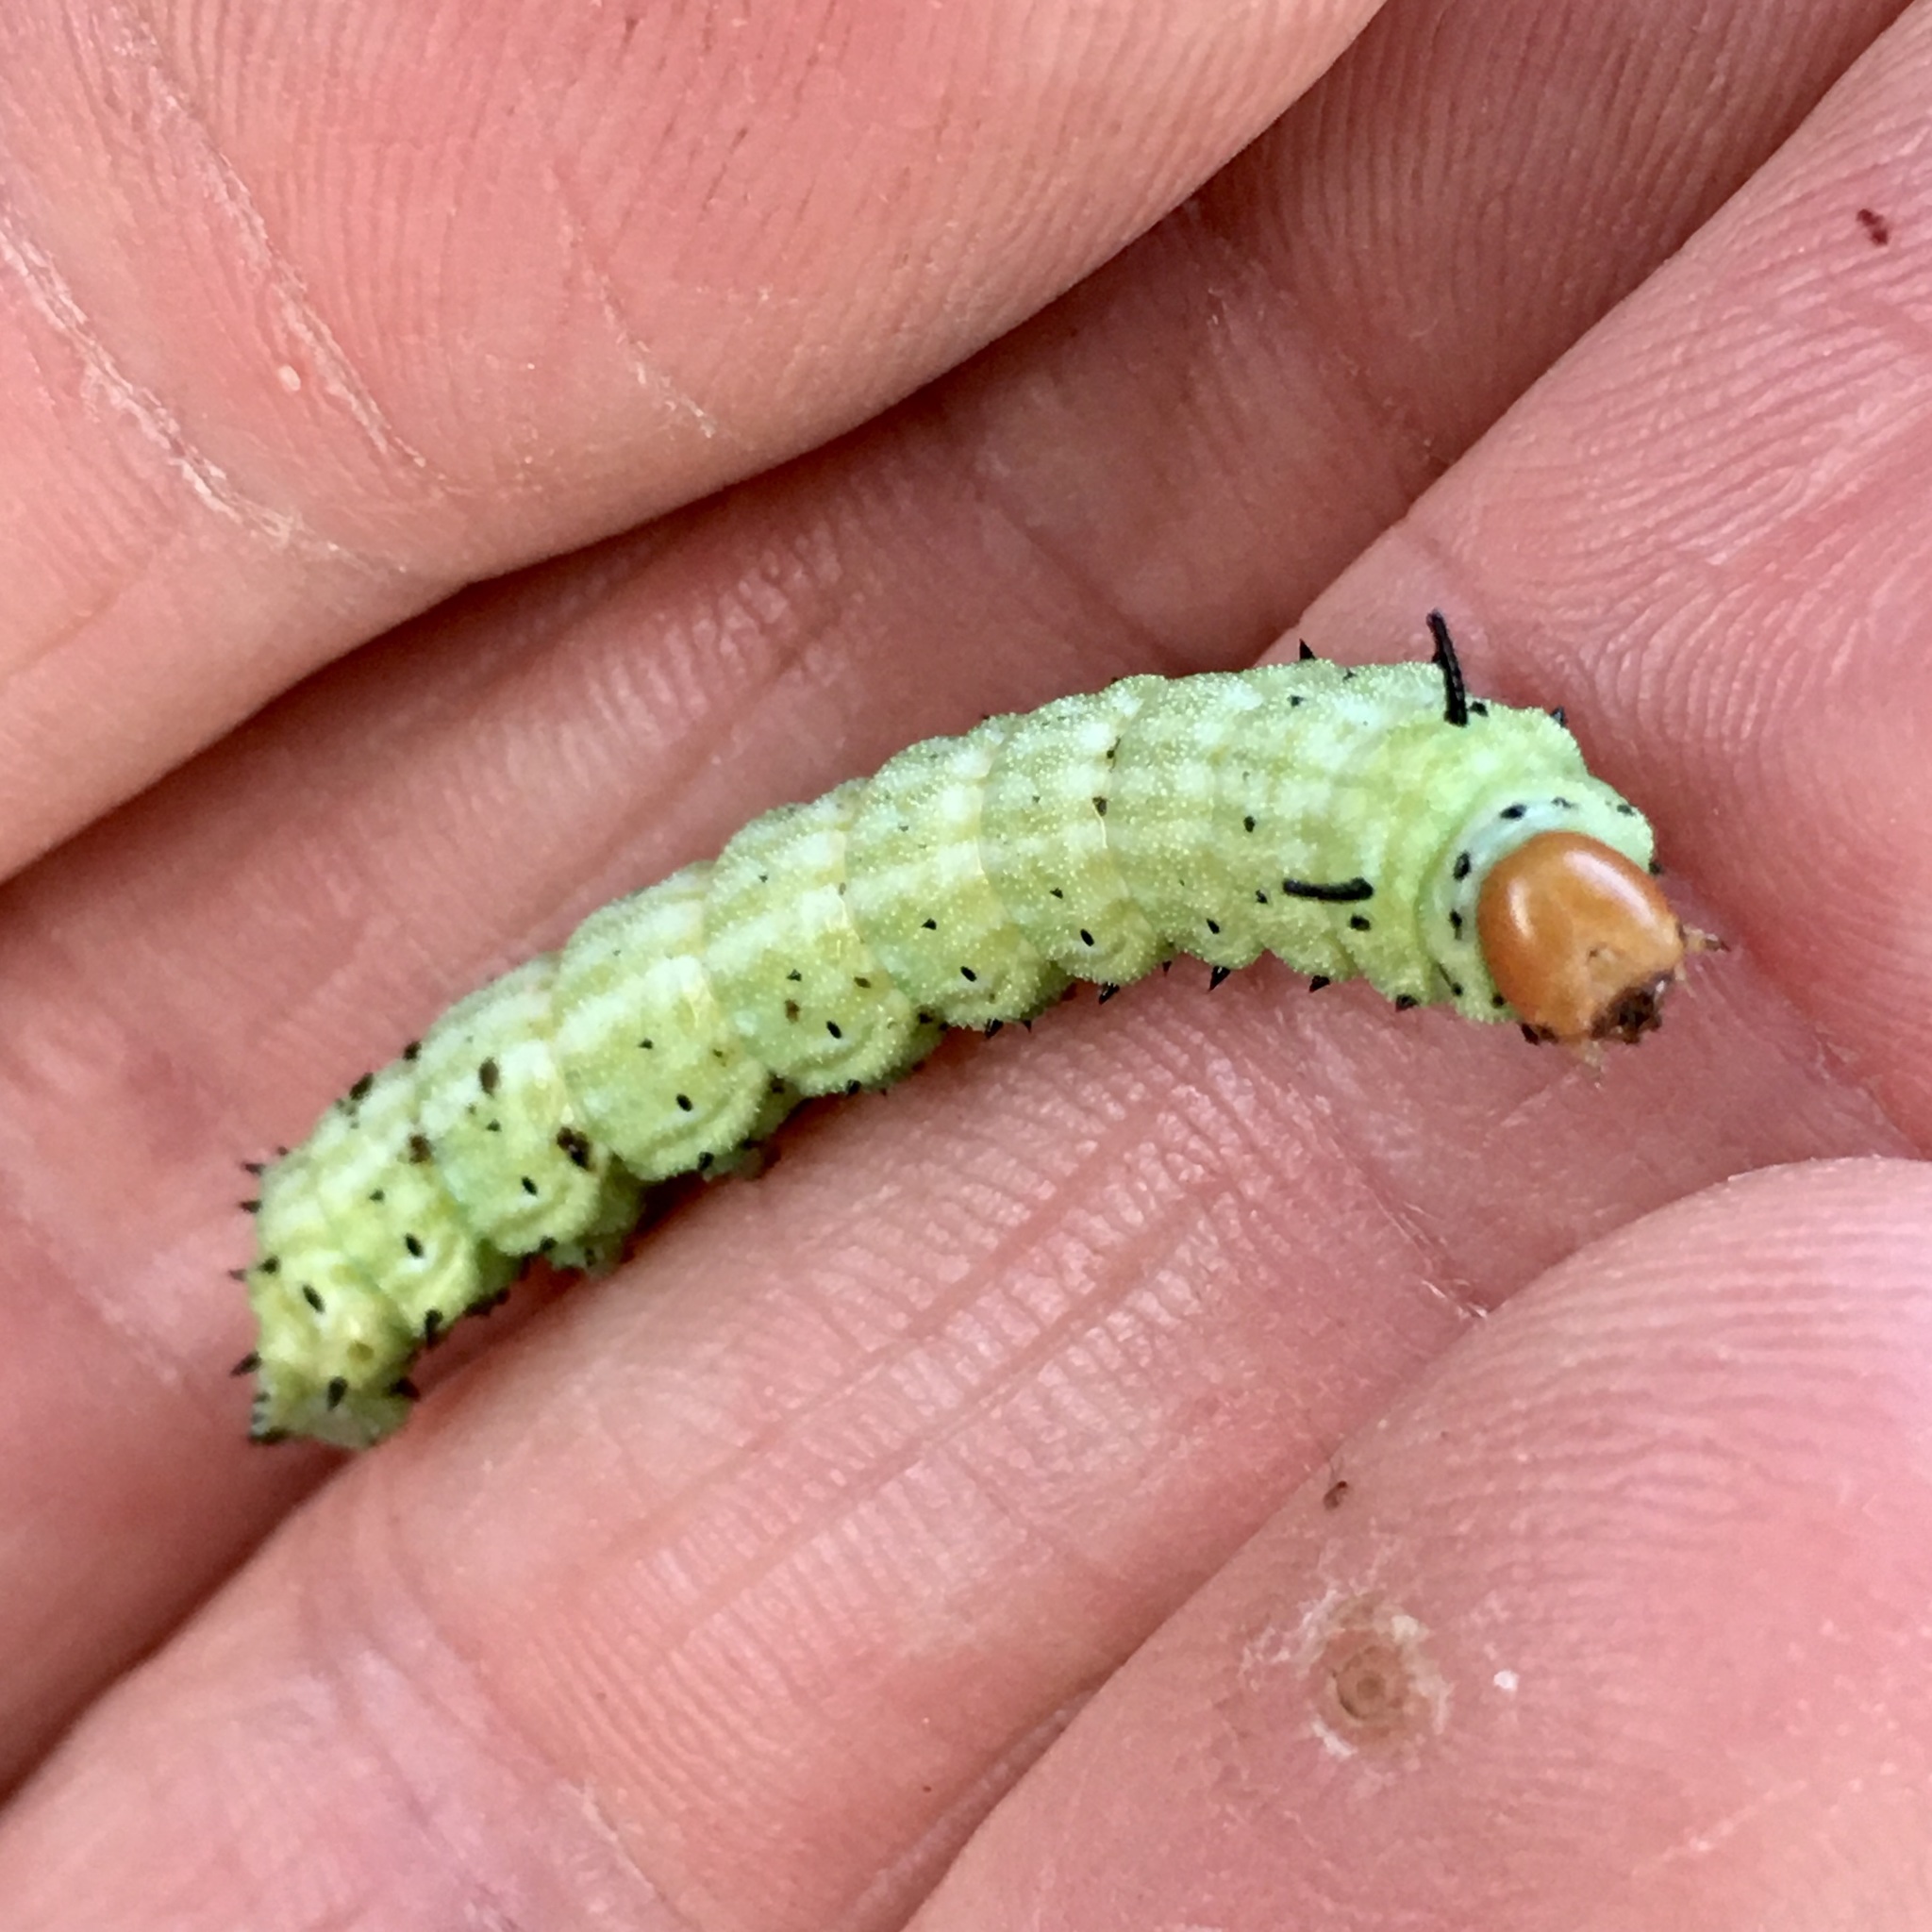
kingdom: Animalia
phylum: Arthropoda
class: Insecta
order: Lepidoptera
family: Saturniidae
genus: Dryocampa
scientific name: Dryocampa rubicunda
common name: Rosy maple moth
